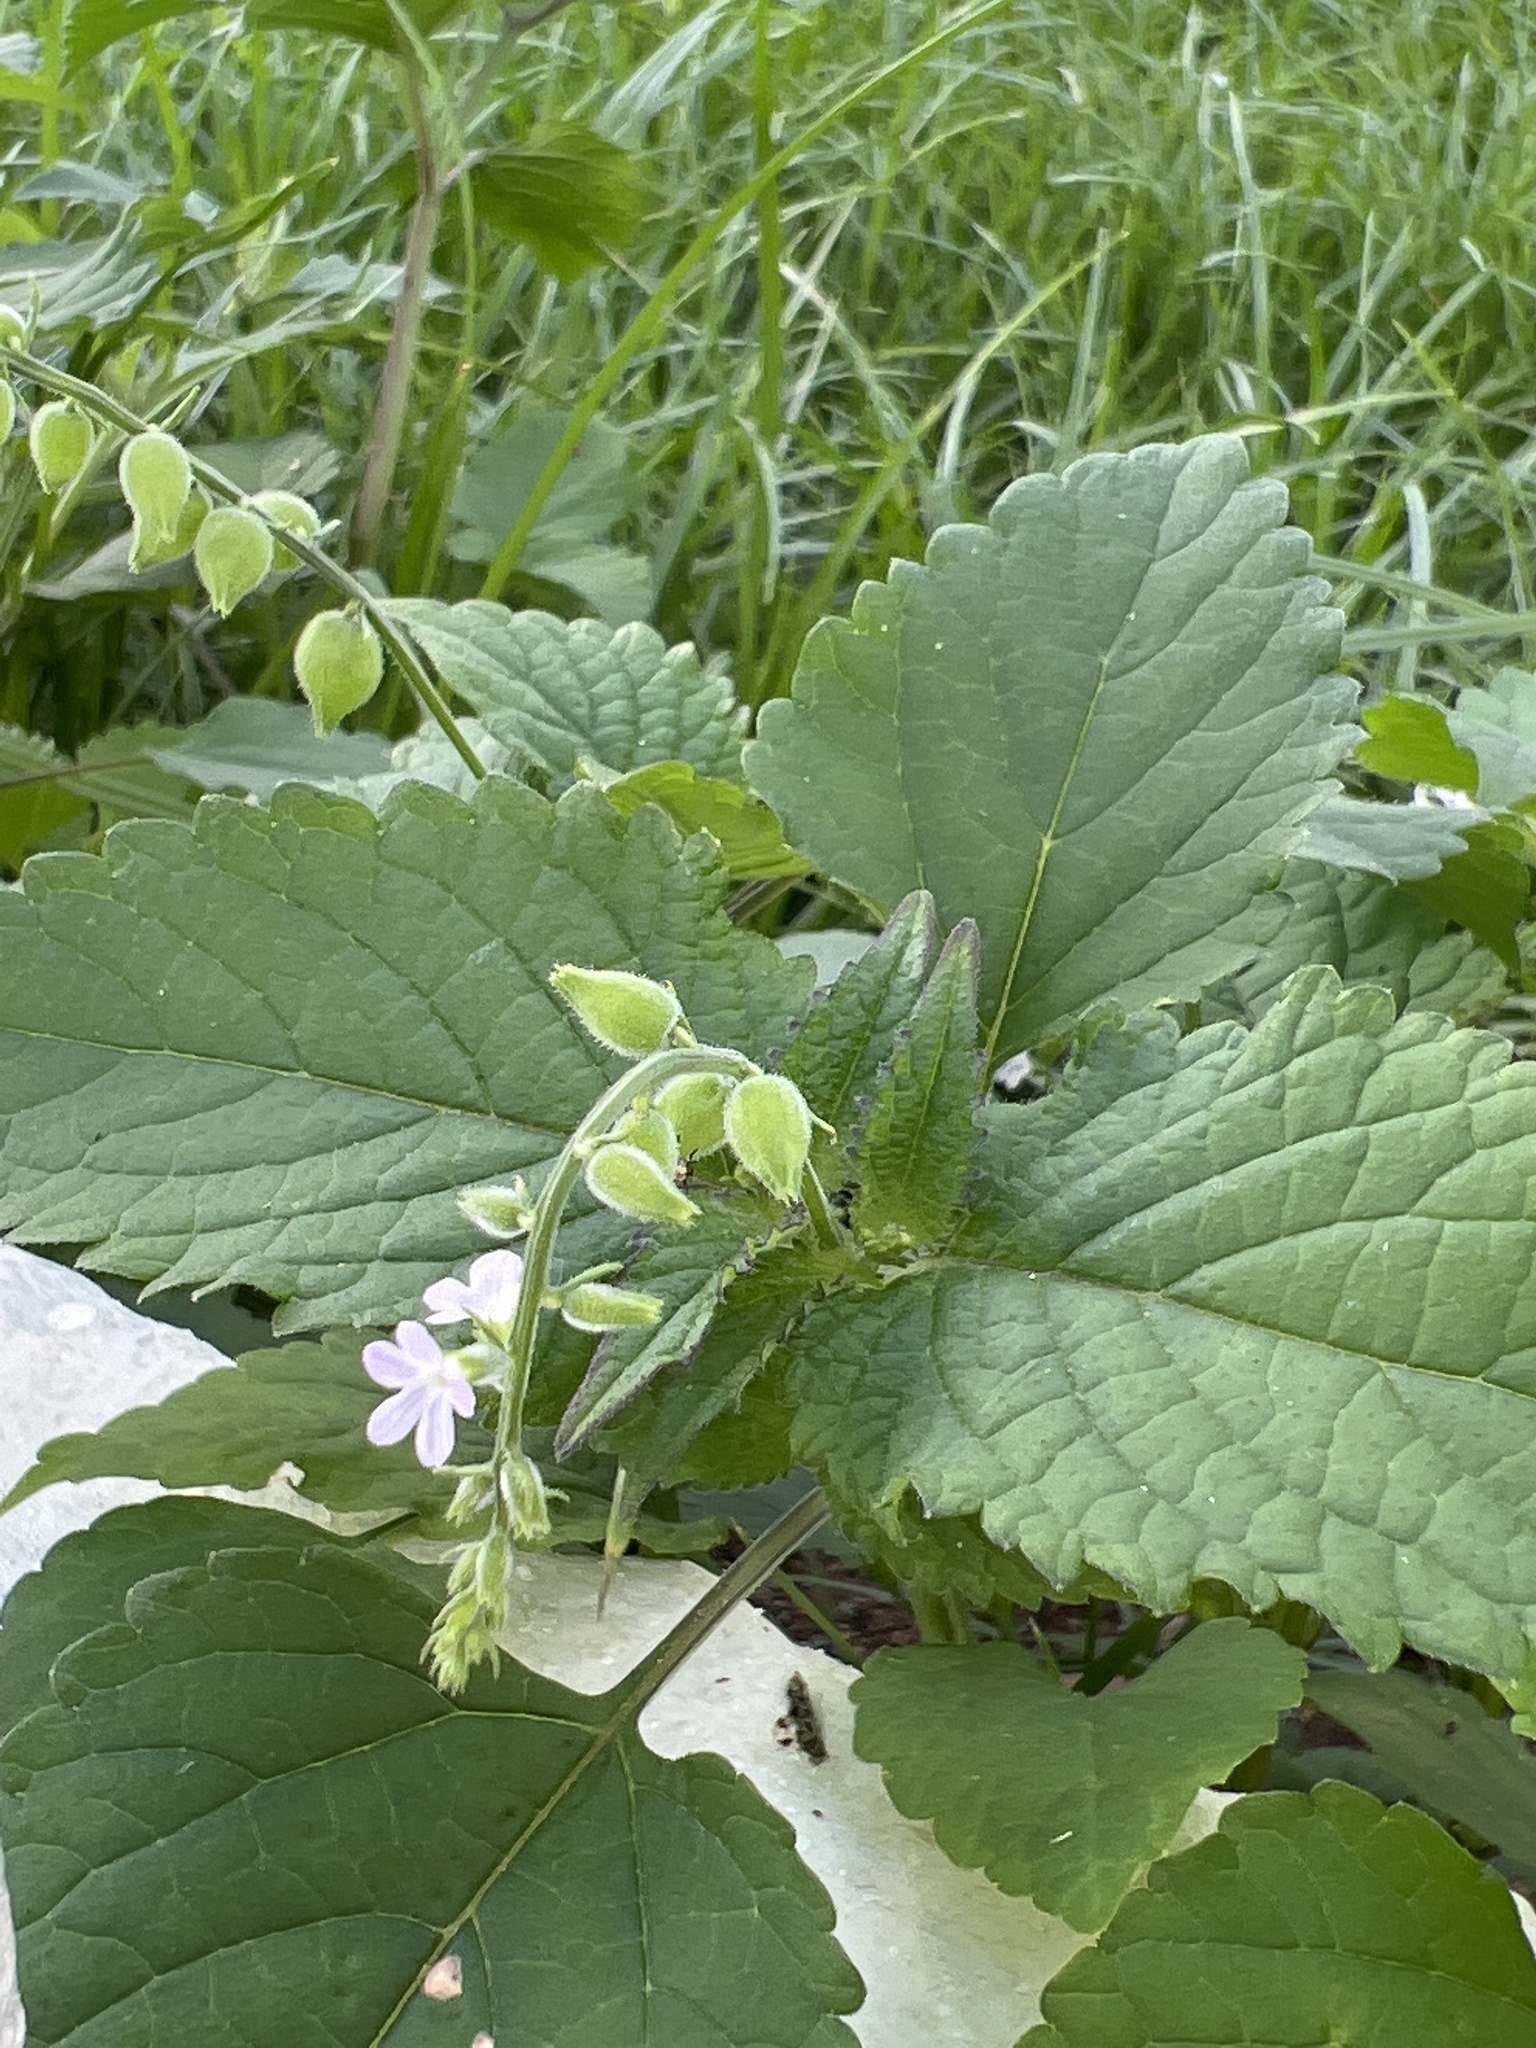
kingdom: Plantae
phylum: Tracheophyta
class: Magnoliopsida
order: Lamiales
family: Verbenaceae
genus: Priva
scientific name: Priva lappulacea
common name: Fasten-'pon-coat
